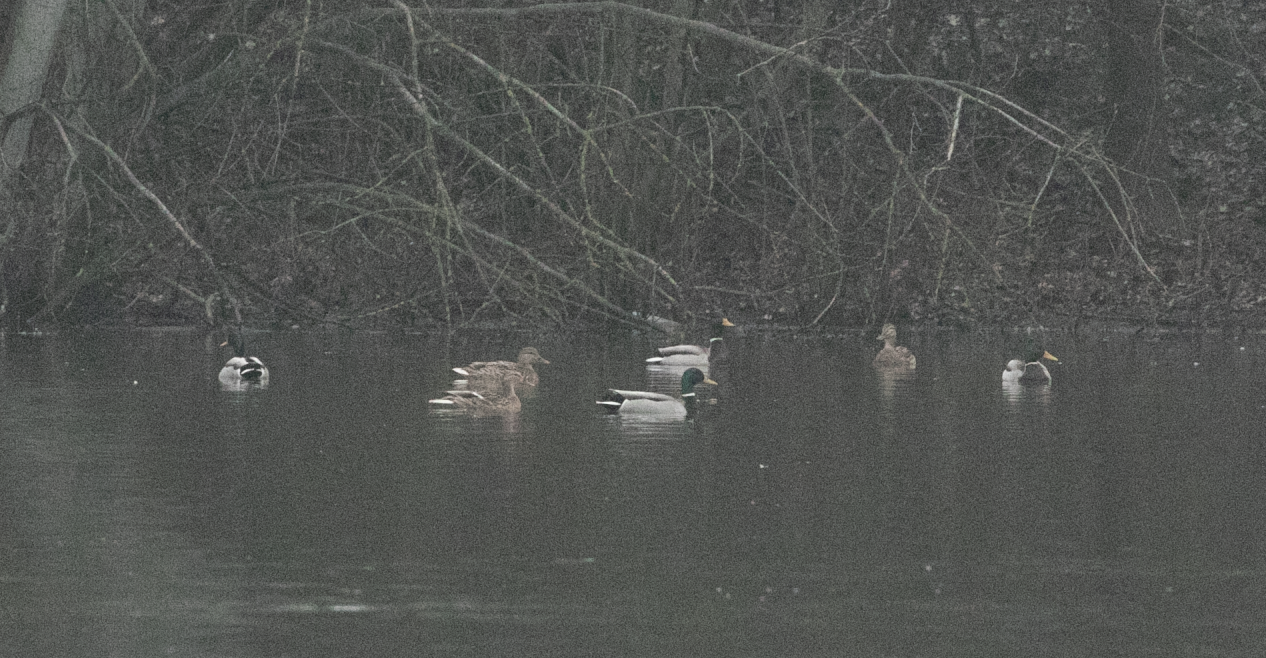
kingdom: Animalia
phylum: Chordata
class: Aves
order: Anseriformes
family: Anatidae
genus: Anas
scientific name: Anas platyrhynchos
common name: Mallard
